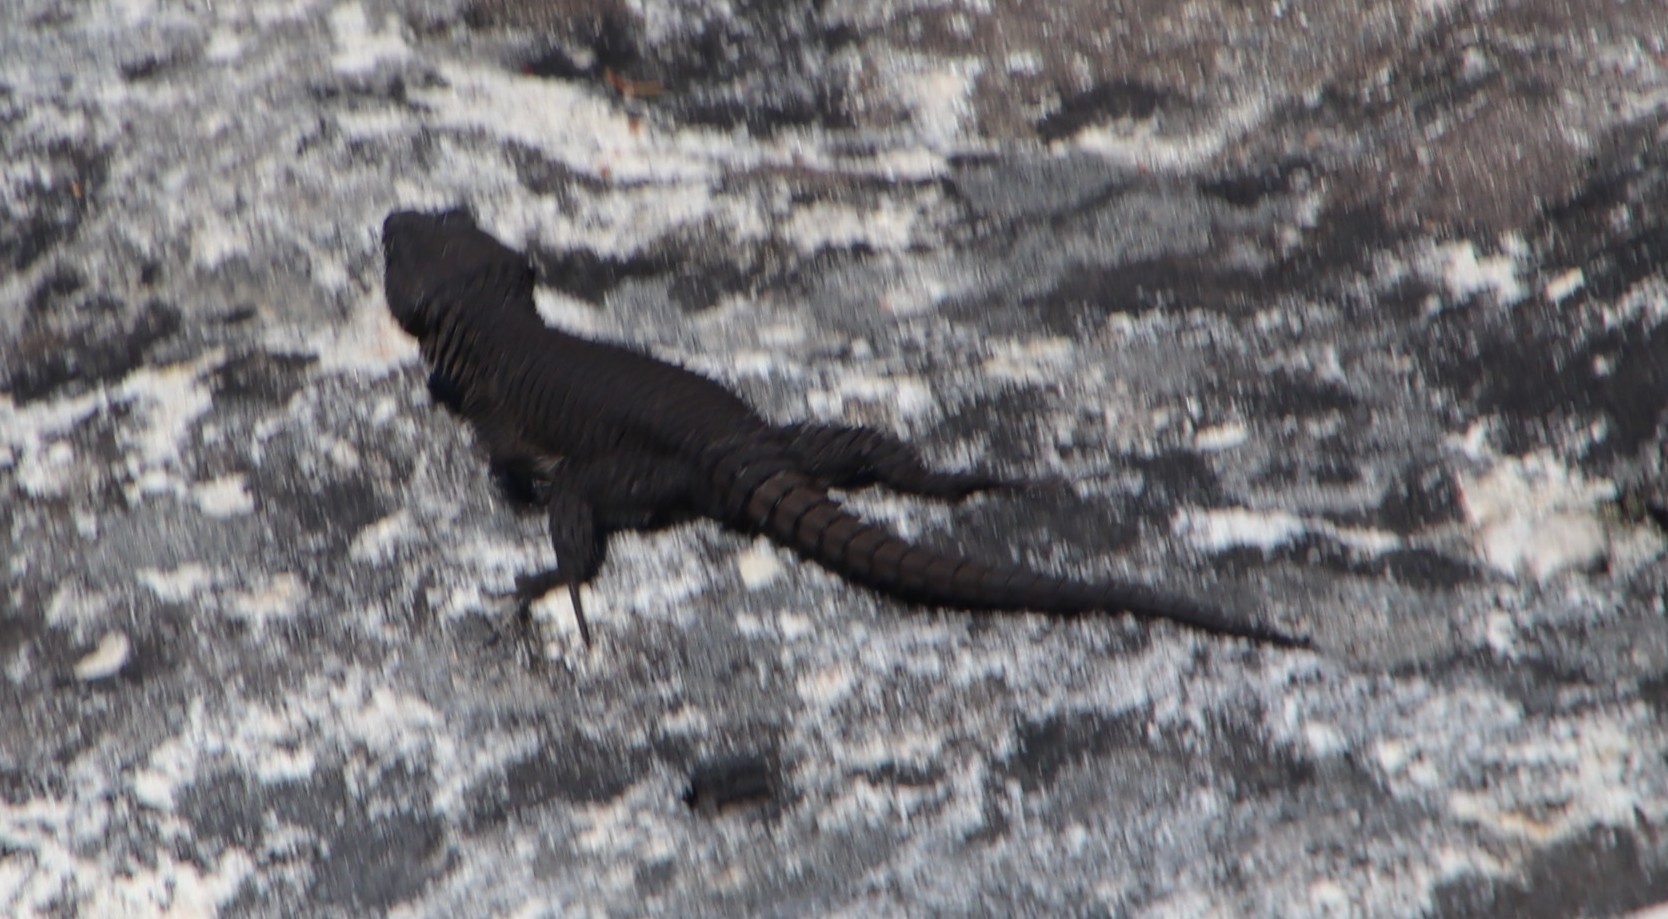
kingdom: Animalia
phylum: Chordata
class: Squamata
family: Cordylidae
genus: Cordylus
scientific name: Cordylus niger
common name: Black girdled lizard
